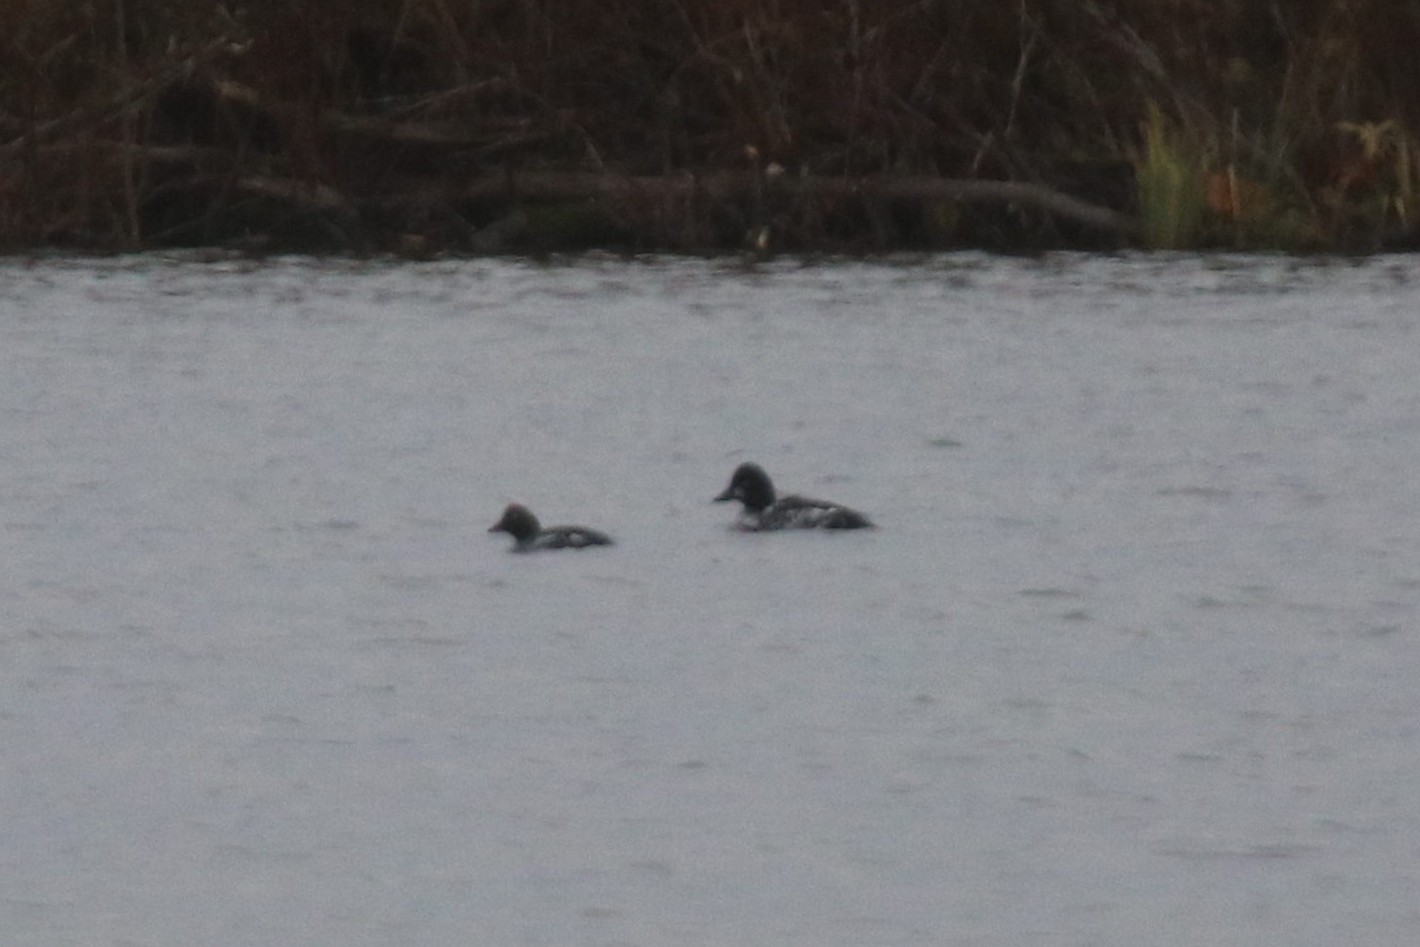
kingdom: Animalia
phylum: Chordata
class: Aves
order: Anseriformes
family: Anatidae
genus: Bucephala
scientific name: Bucephala clangula
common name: Common goldeneye
